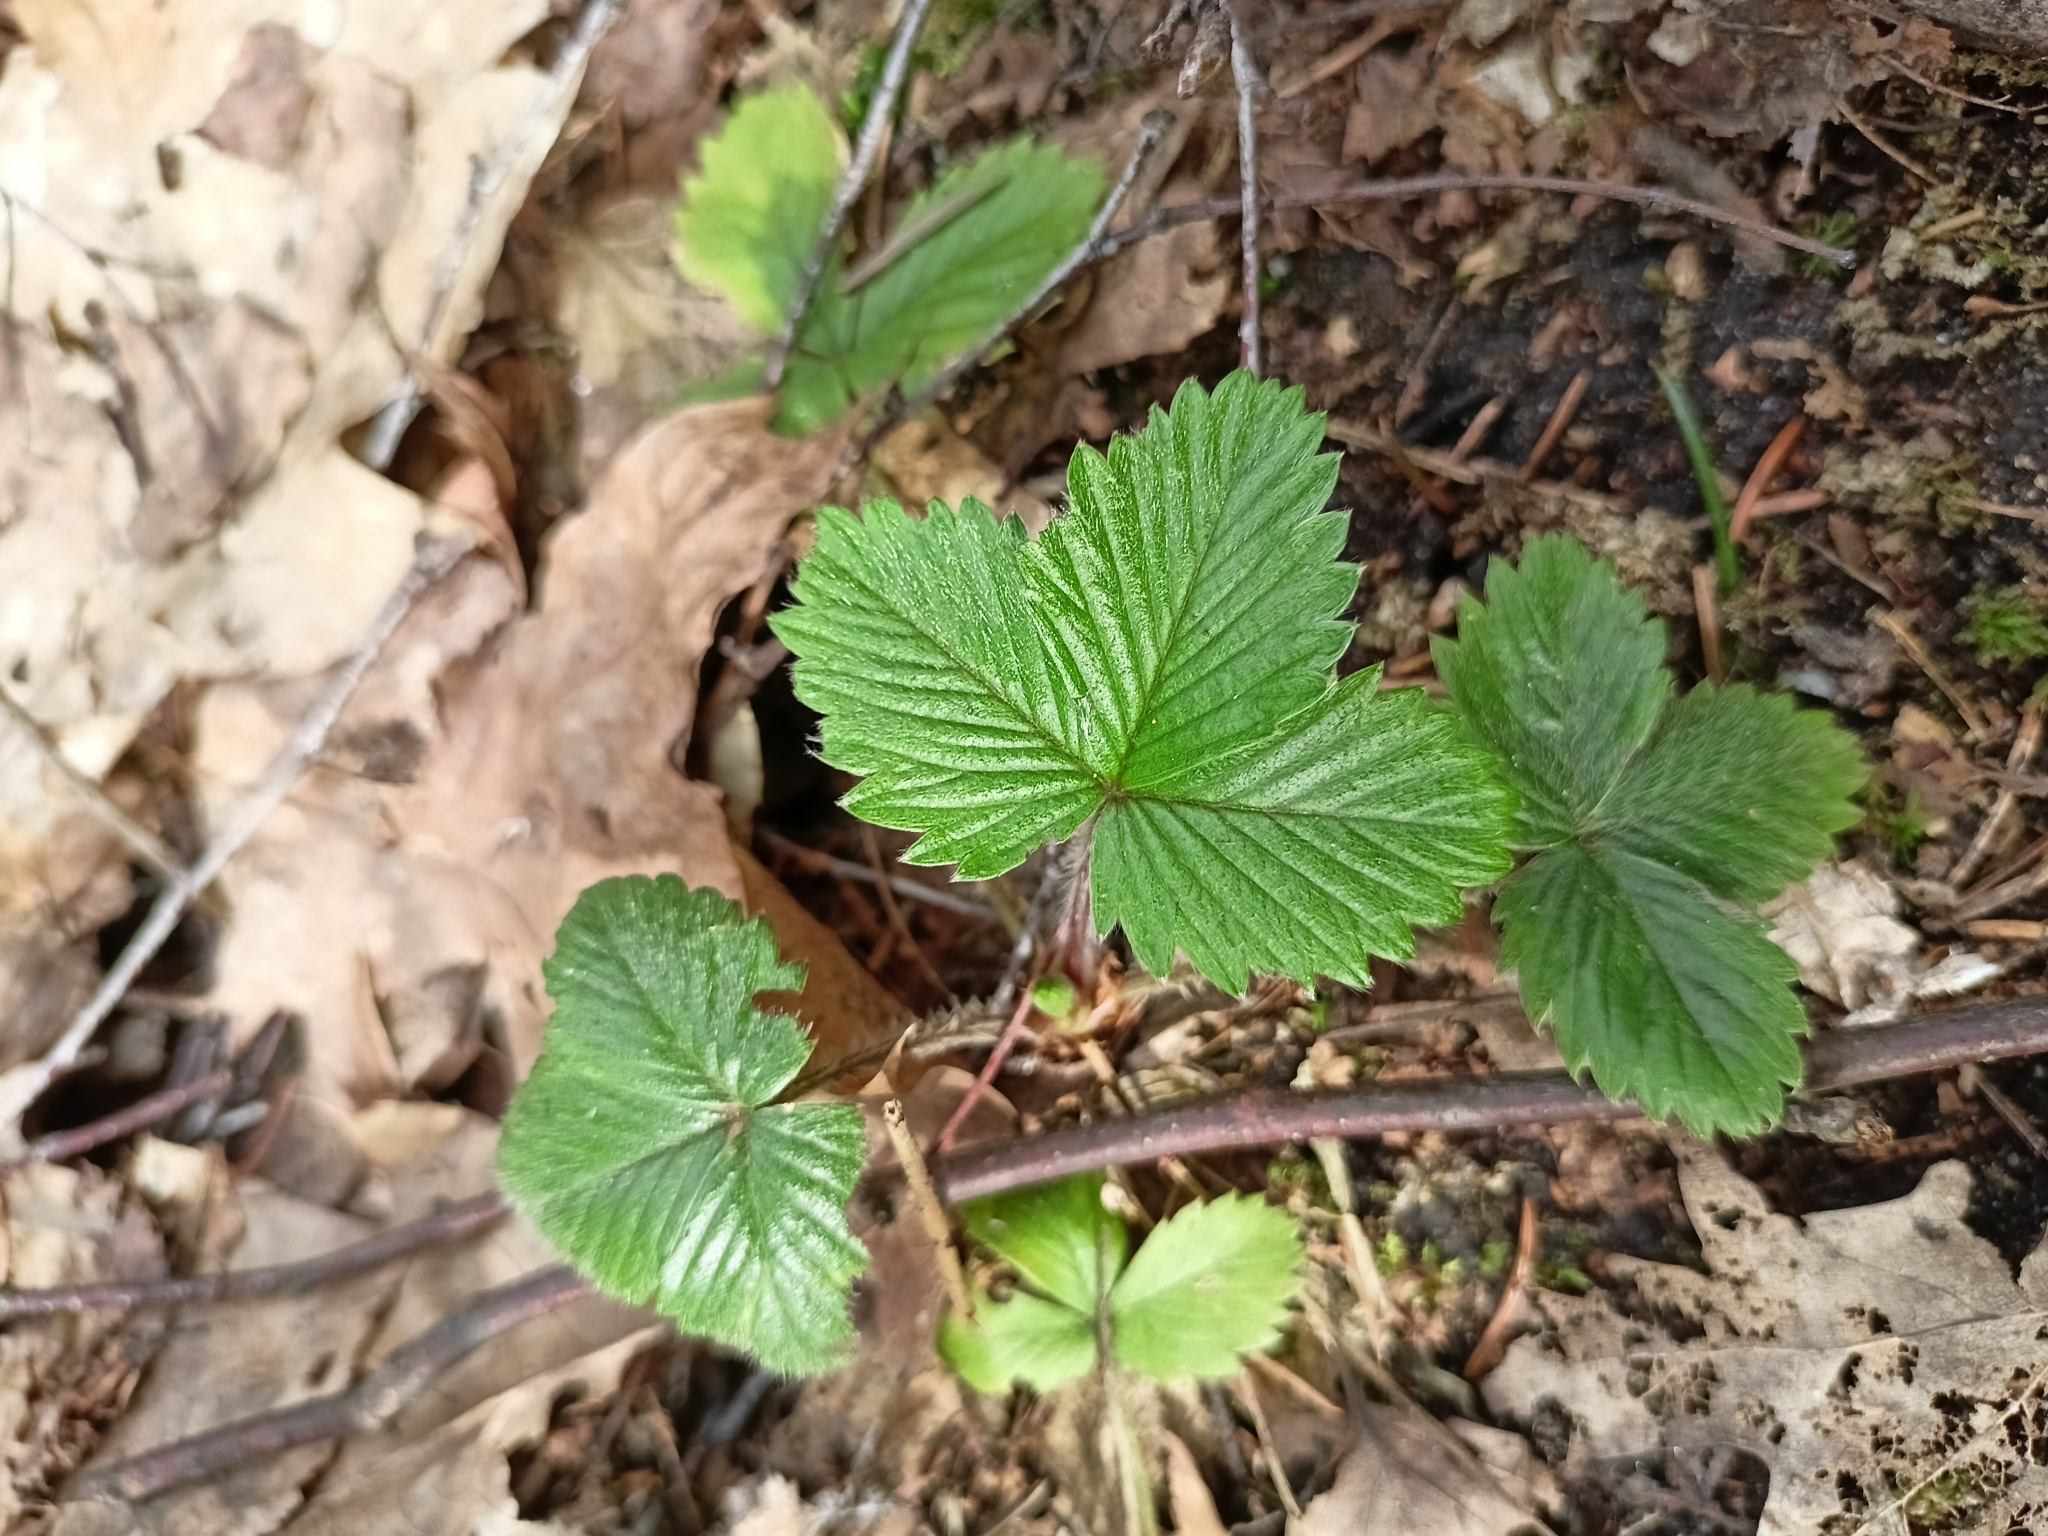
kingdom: Plantae
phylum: Tracheophyta
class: Magnoliopsida
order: Rosales
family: Rosaceae
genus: Fragaria
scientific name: Fragaria vesca
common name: Wild strawberry
